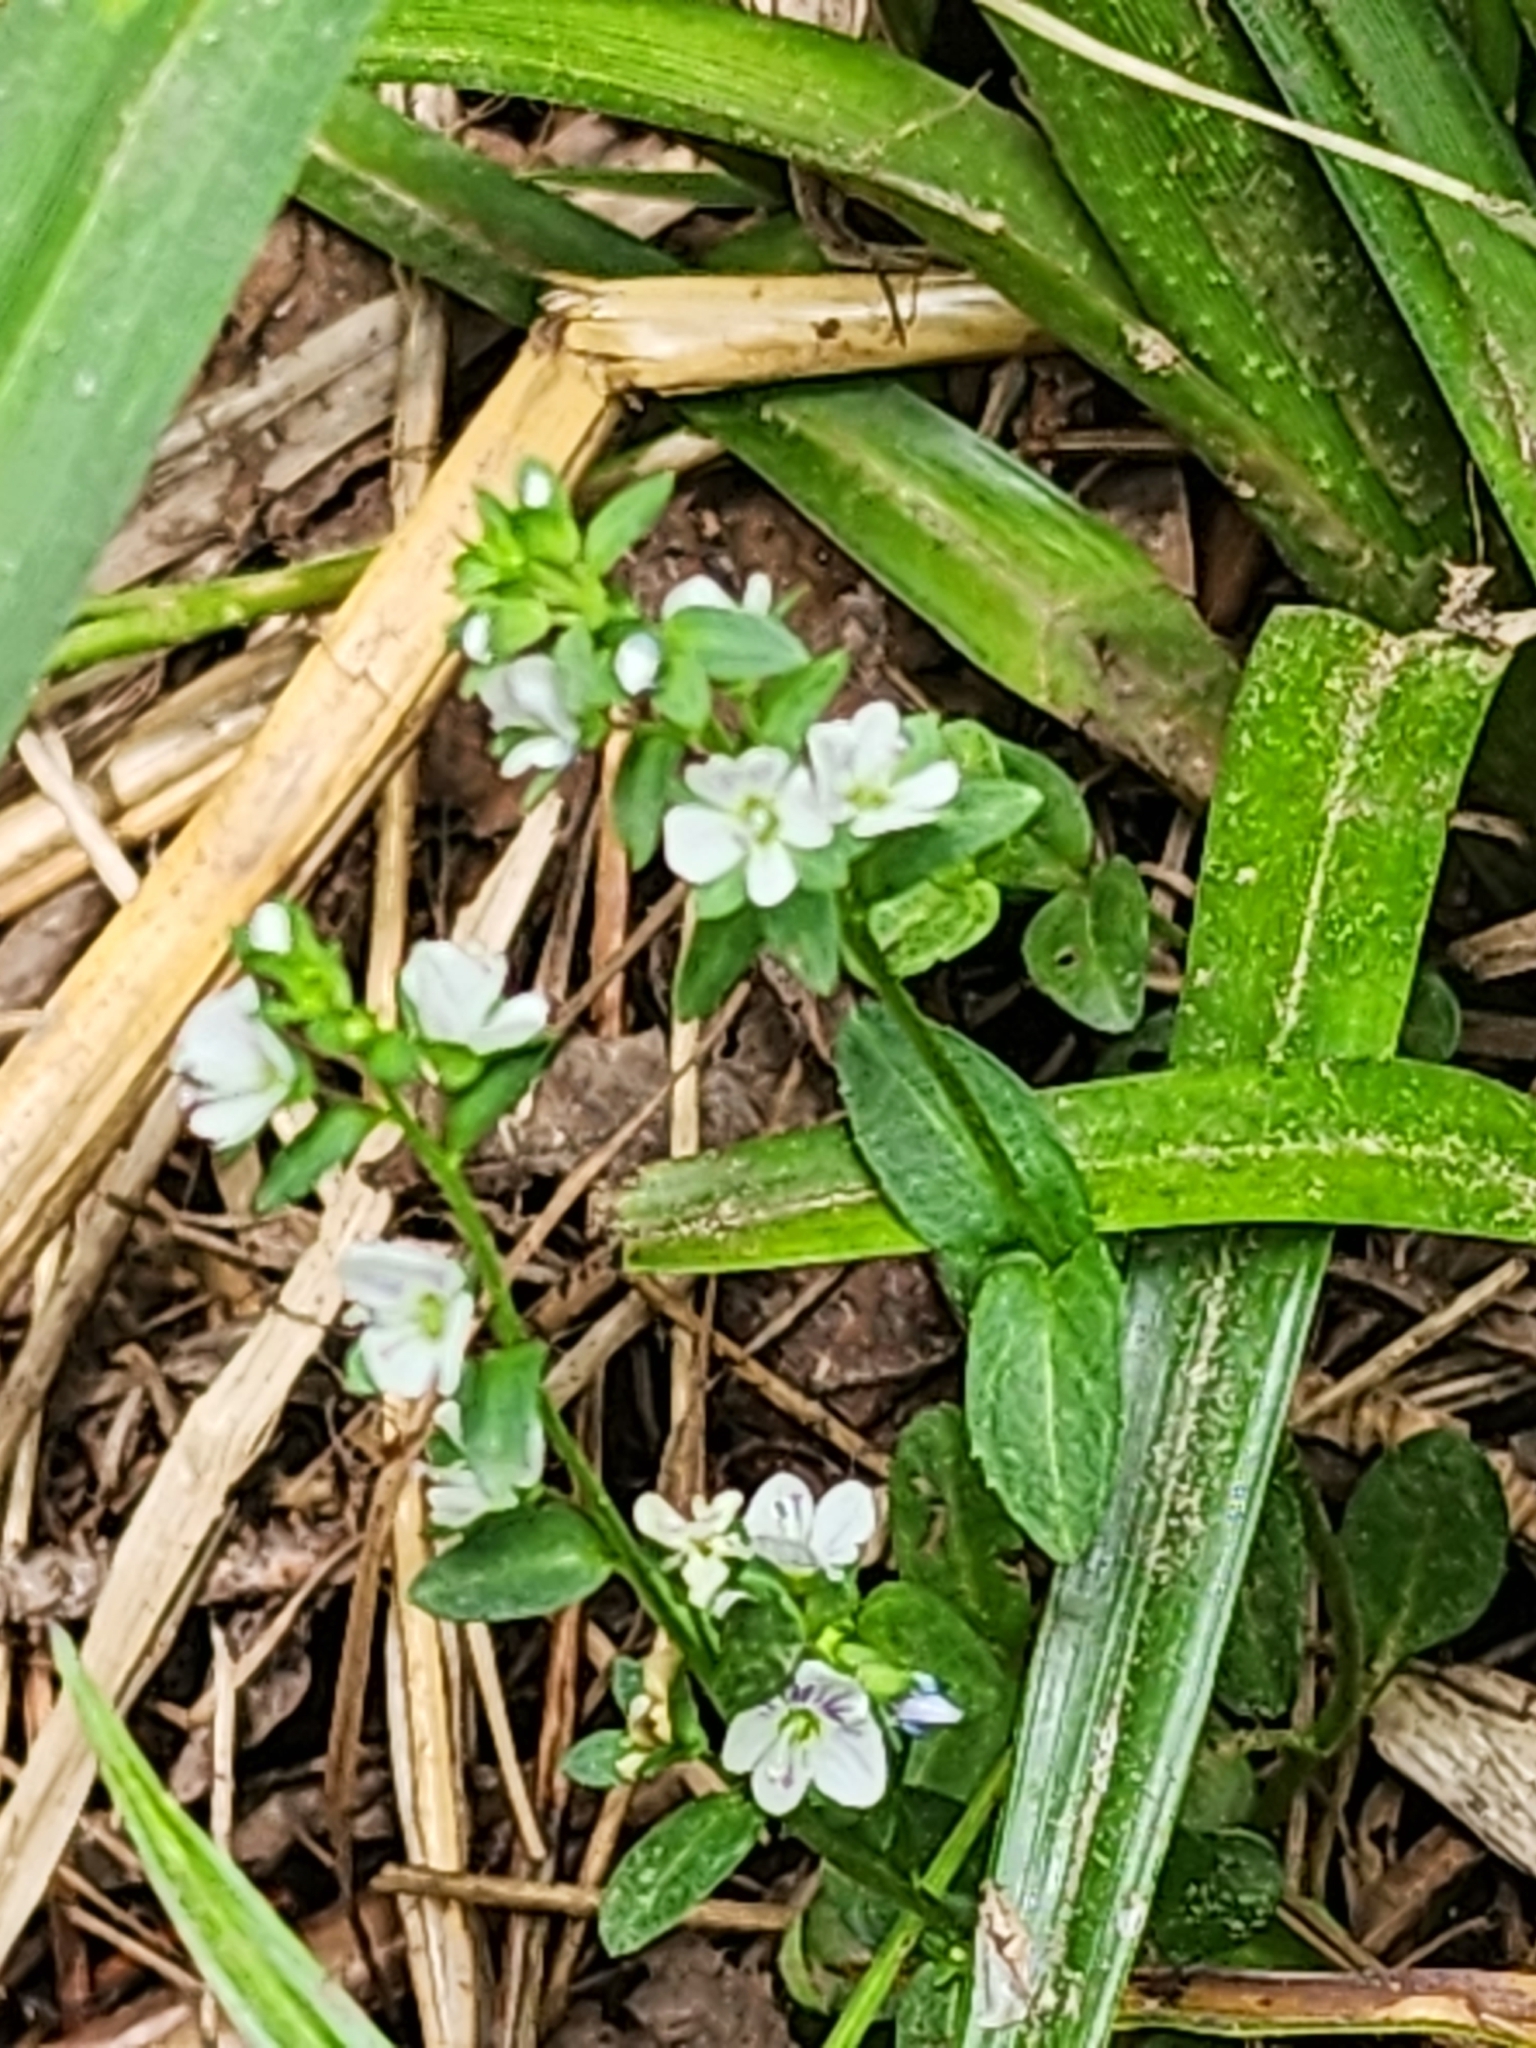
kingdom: Plantae
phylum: Tracheophyta
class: Magnoliopsida
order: Lamiales
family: Plantaginaceae
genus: Veronica
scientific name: Veronica serpyllifolia
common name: Thyme-leaved speedwell
